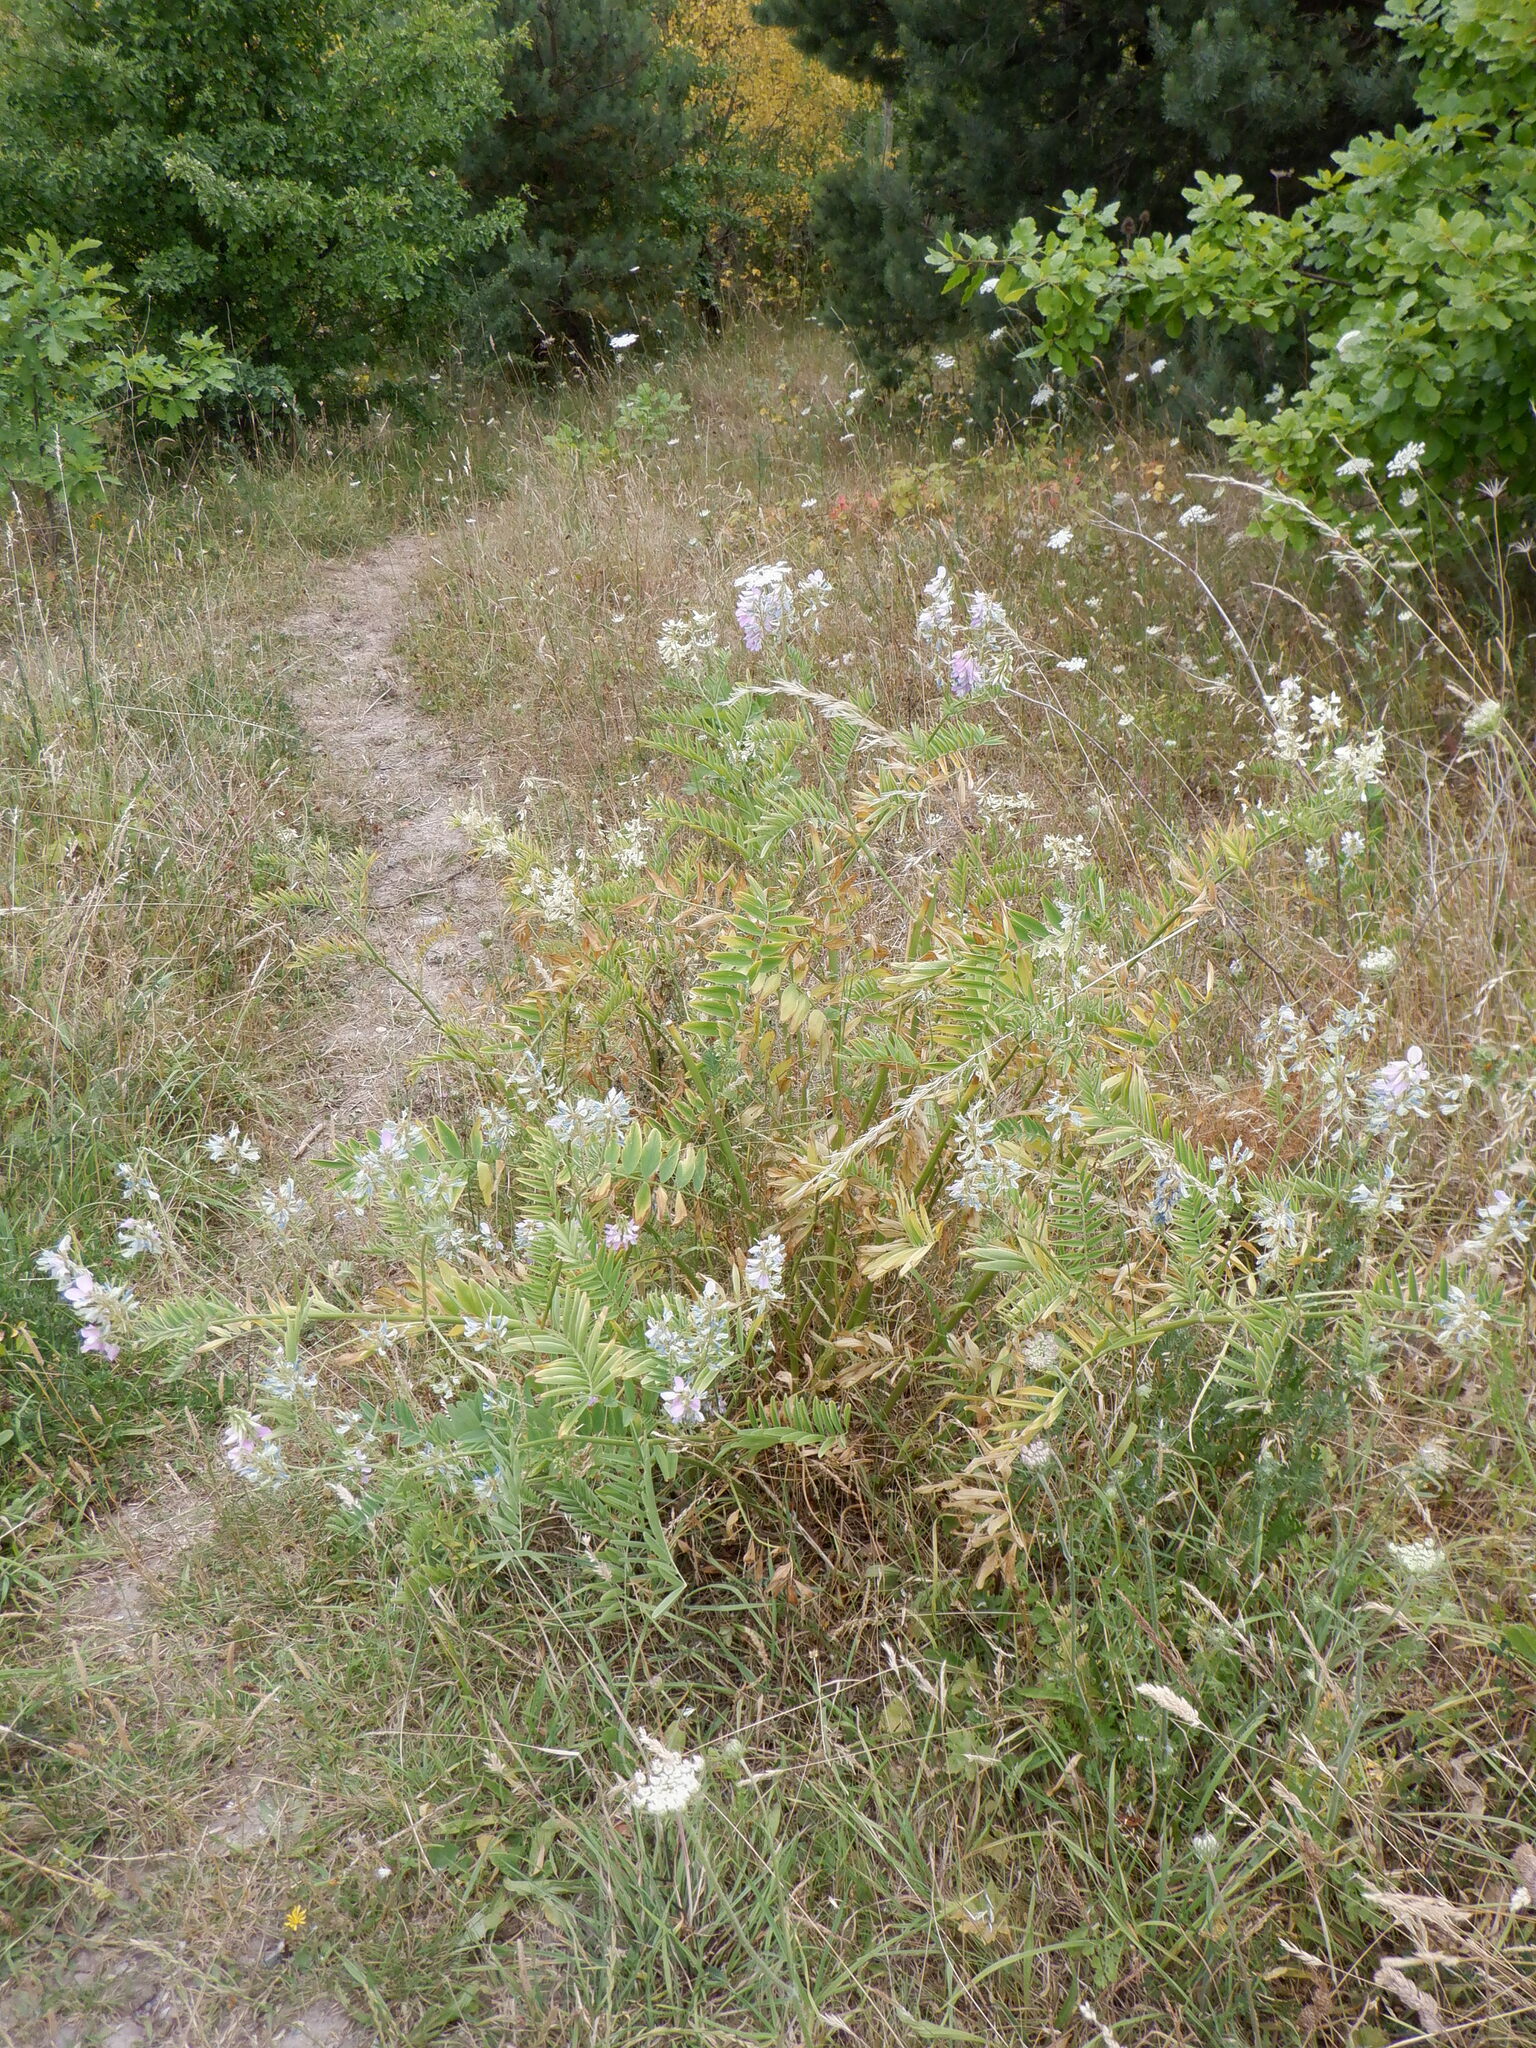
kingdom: Plantae
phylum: Tracheophyta
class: Magnoliopsida
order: Fabales
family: Fabaceae
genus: Galega
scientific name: Galega officinalis
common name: Goat's-rue
